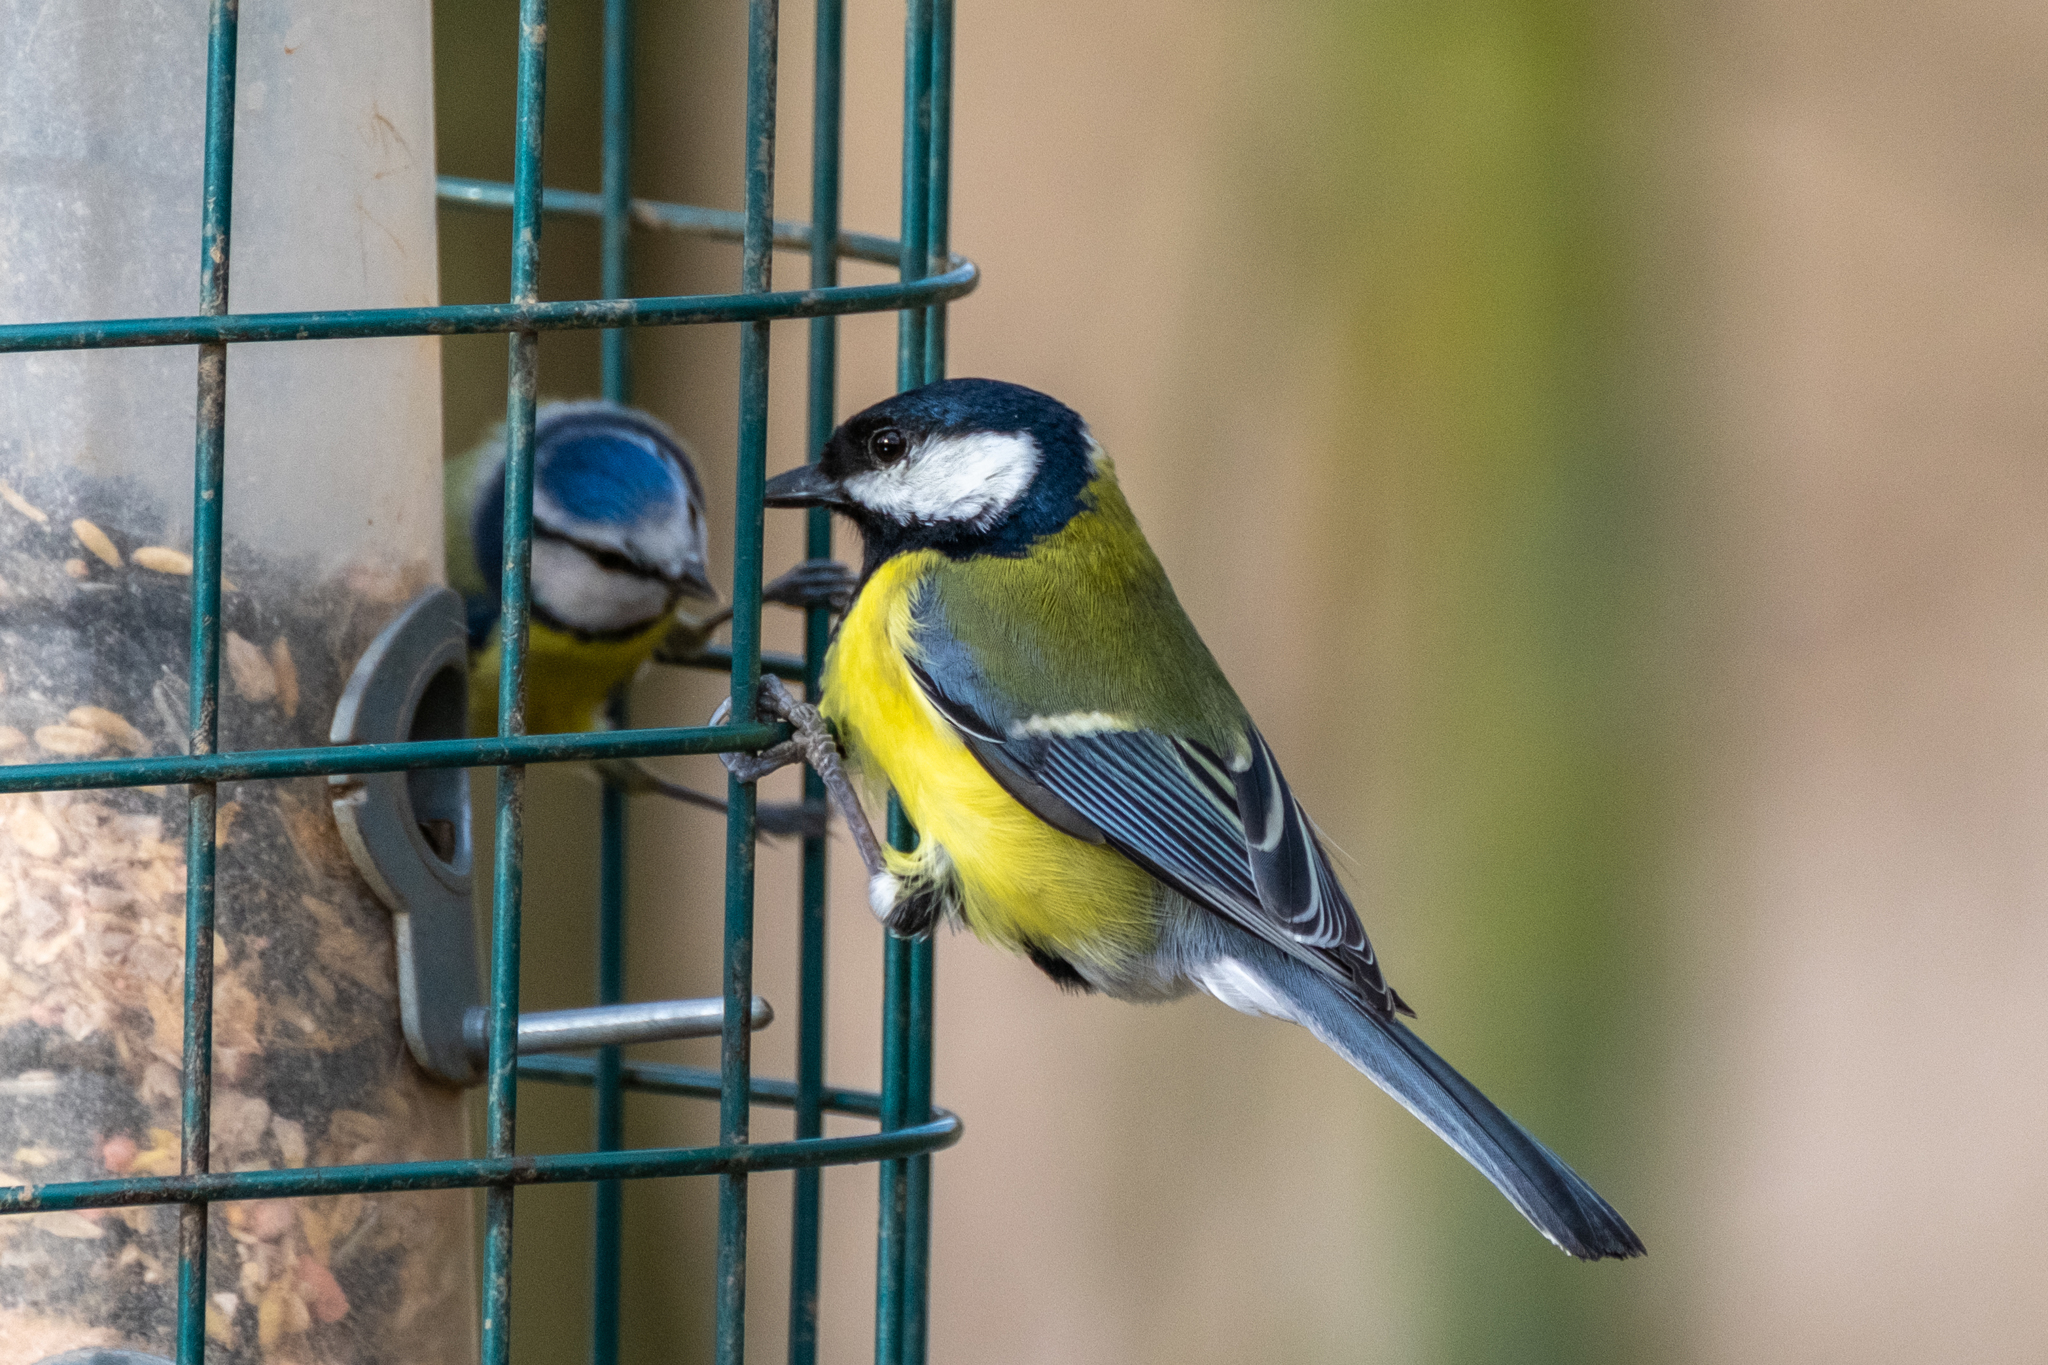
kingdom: Animalia
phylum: Chordata
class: Aves
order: Passeriformes
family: Paridae
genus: Parus
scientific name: Parus major
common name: Great tit
